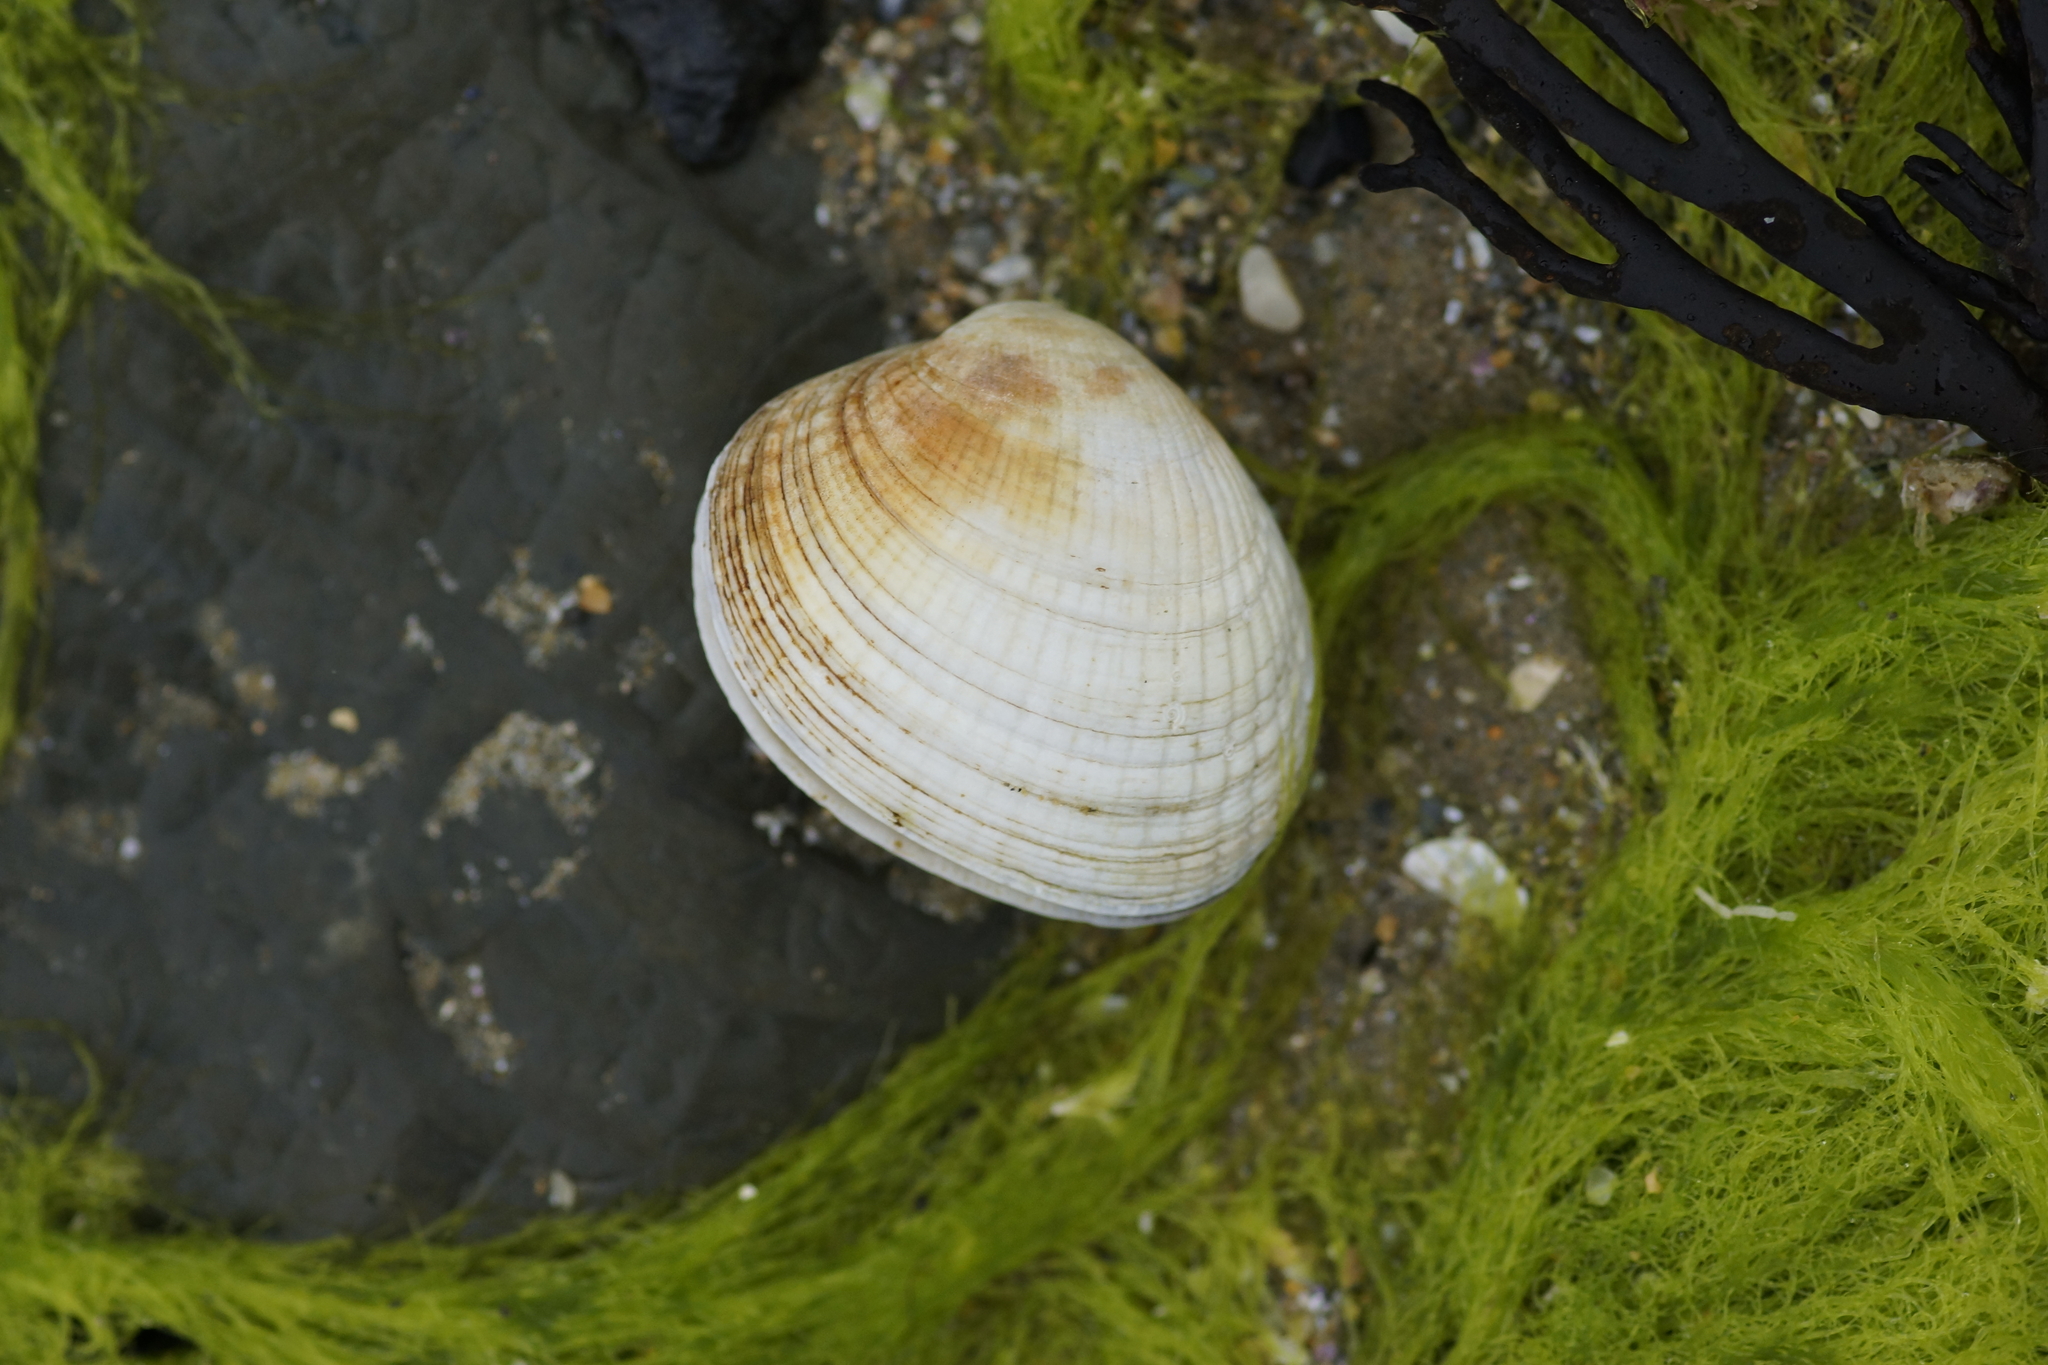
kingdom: Animalia
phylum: Mollusca
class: Bivalvia
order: Venerida
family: Veneridae
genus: Leukoma
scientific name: Leukoma crassicosta
